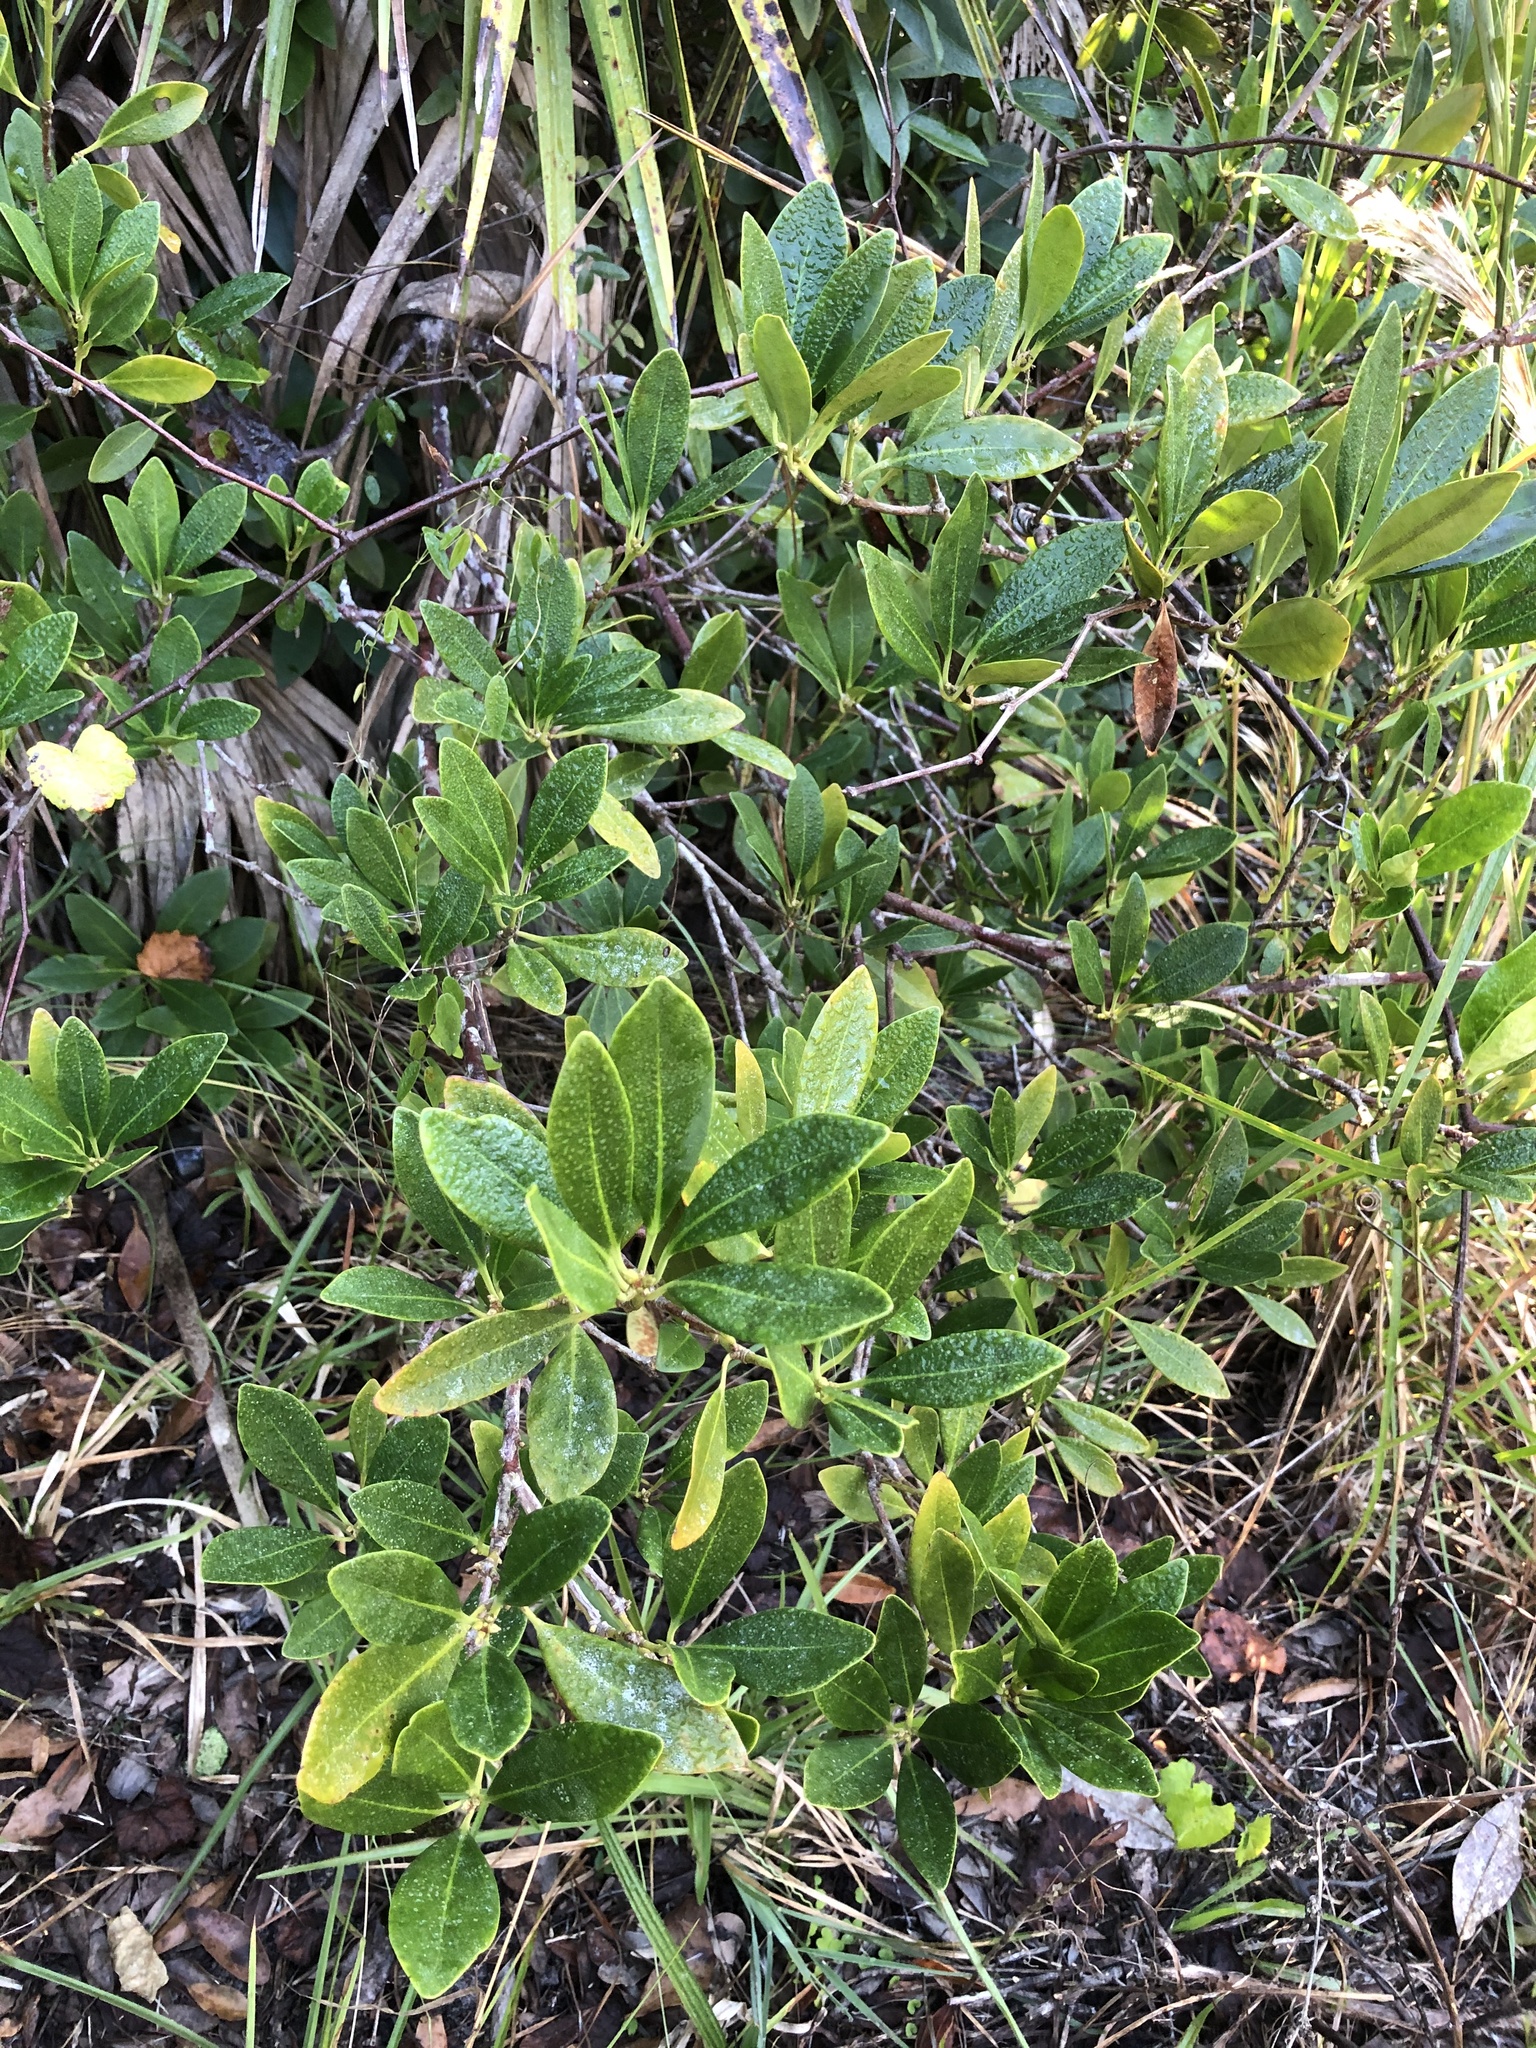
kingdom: Plantae
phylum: Tracheophyta
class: Magnoliopsida
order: Austrobaileyales
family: Schisandraceae
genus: Illicium
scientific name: Illicium parviflorum
